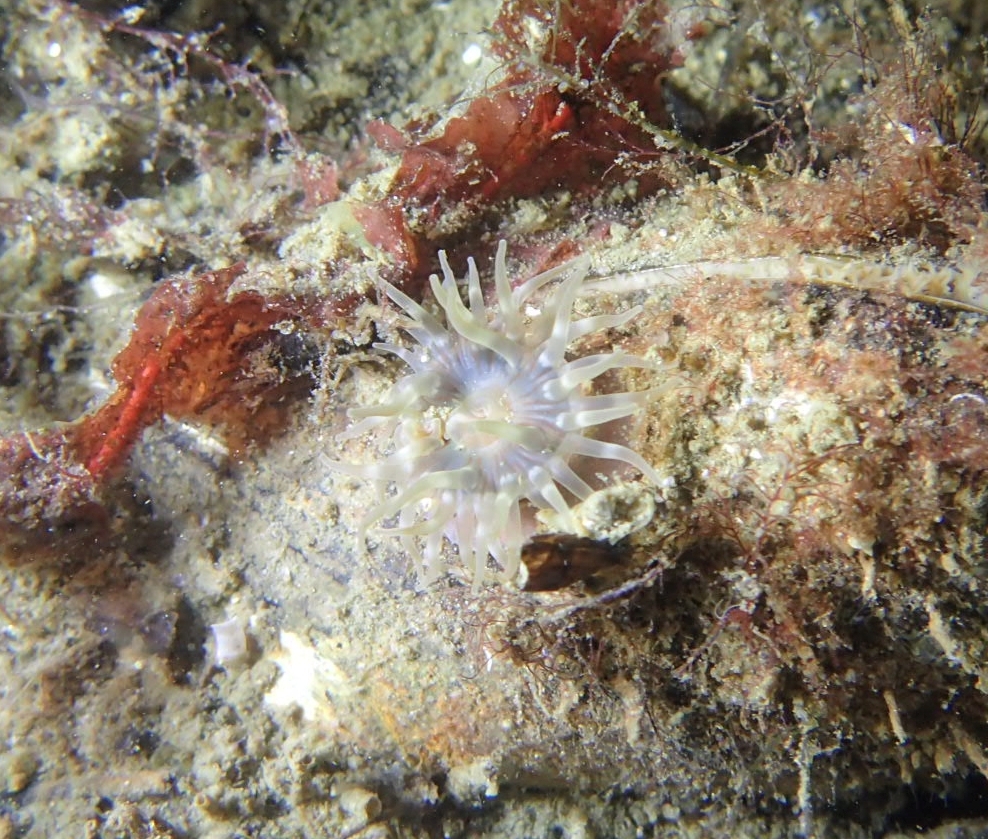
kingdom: Animalia
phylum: Cnidaria
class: Anthozoa
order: Actiniaria
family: Actiniidae
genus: Urticina
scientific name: Urticina felina
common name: Dahlia anemone
